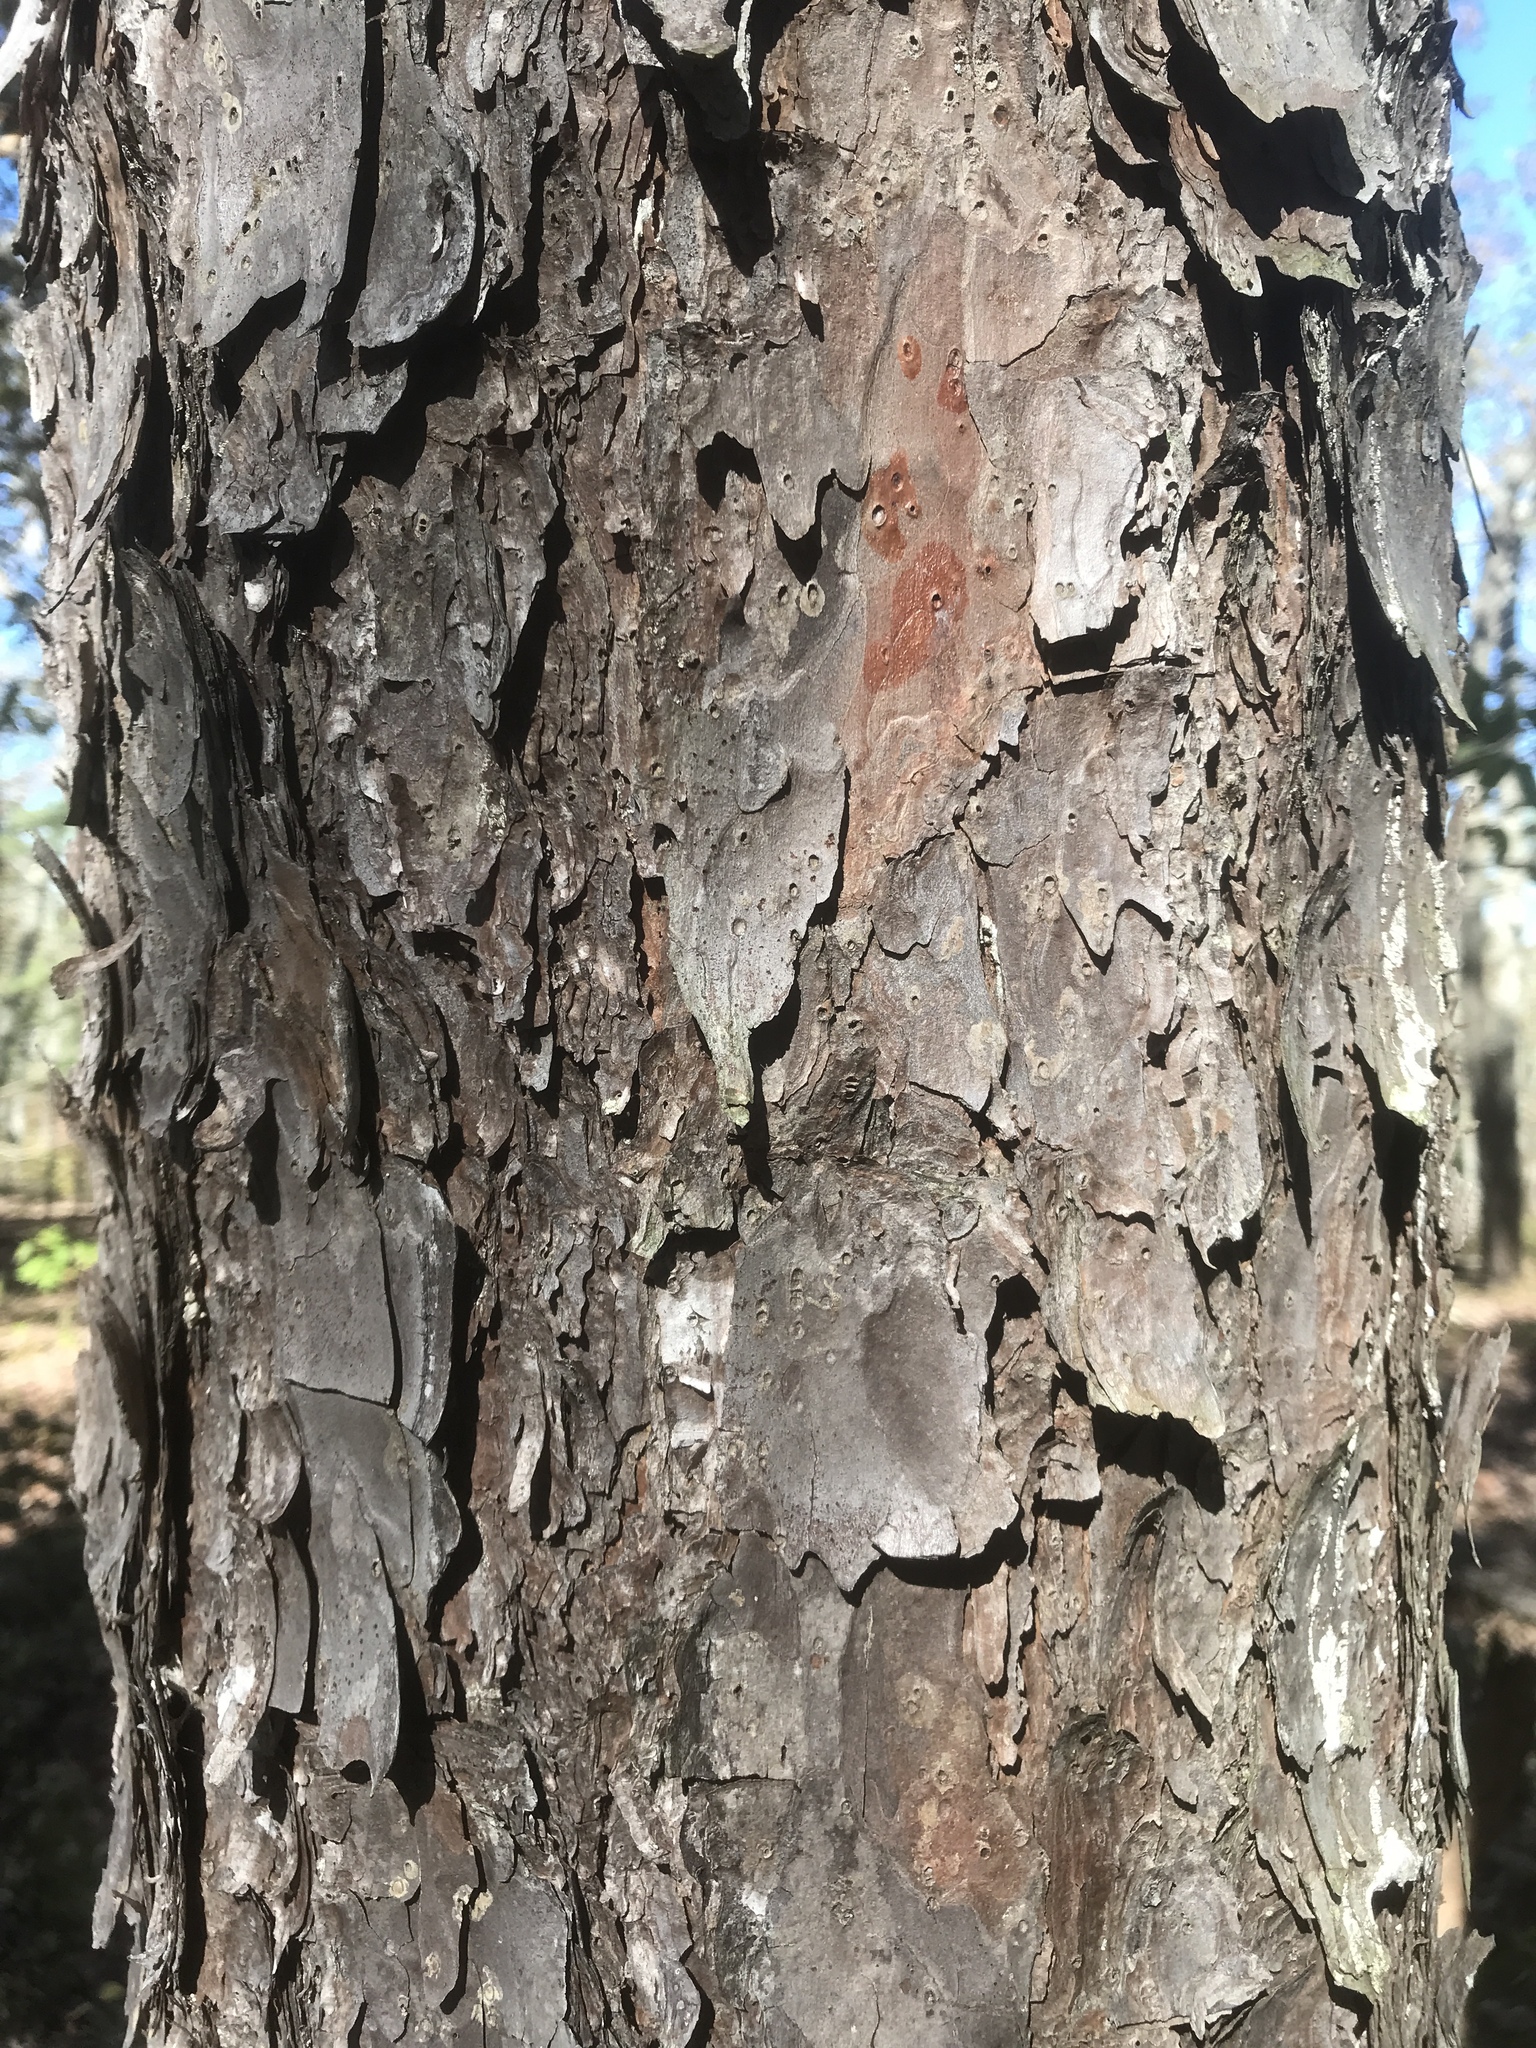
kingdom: Plantae
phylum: Tracheophyta
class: Pinopsida
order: Pinales
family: Pinaceae
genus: Pinus
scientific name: Pinus echinata
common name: Shortleaf pine
